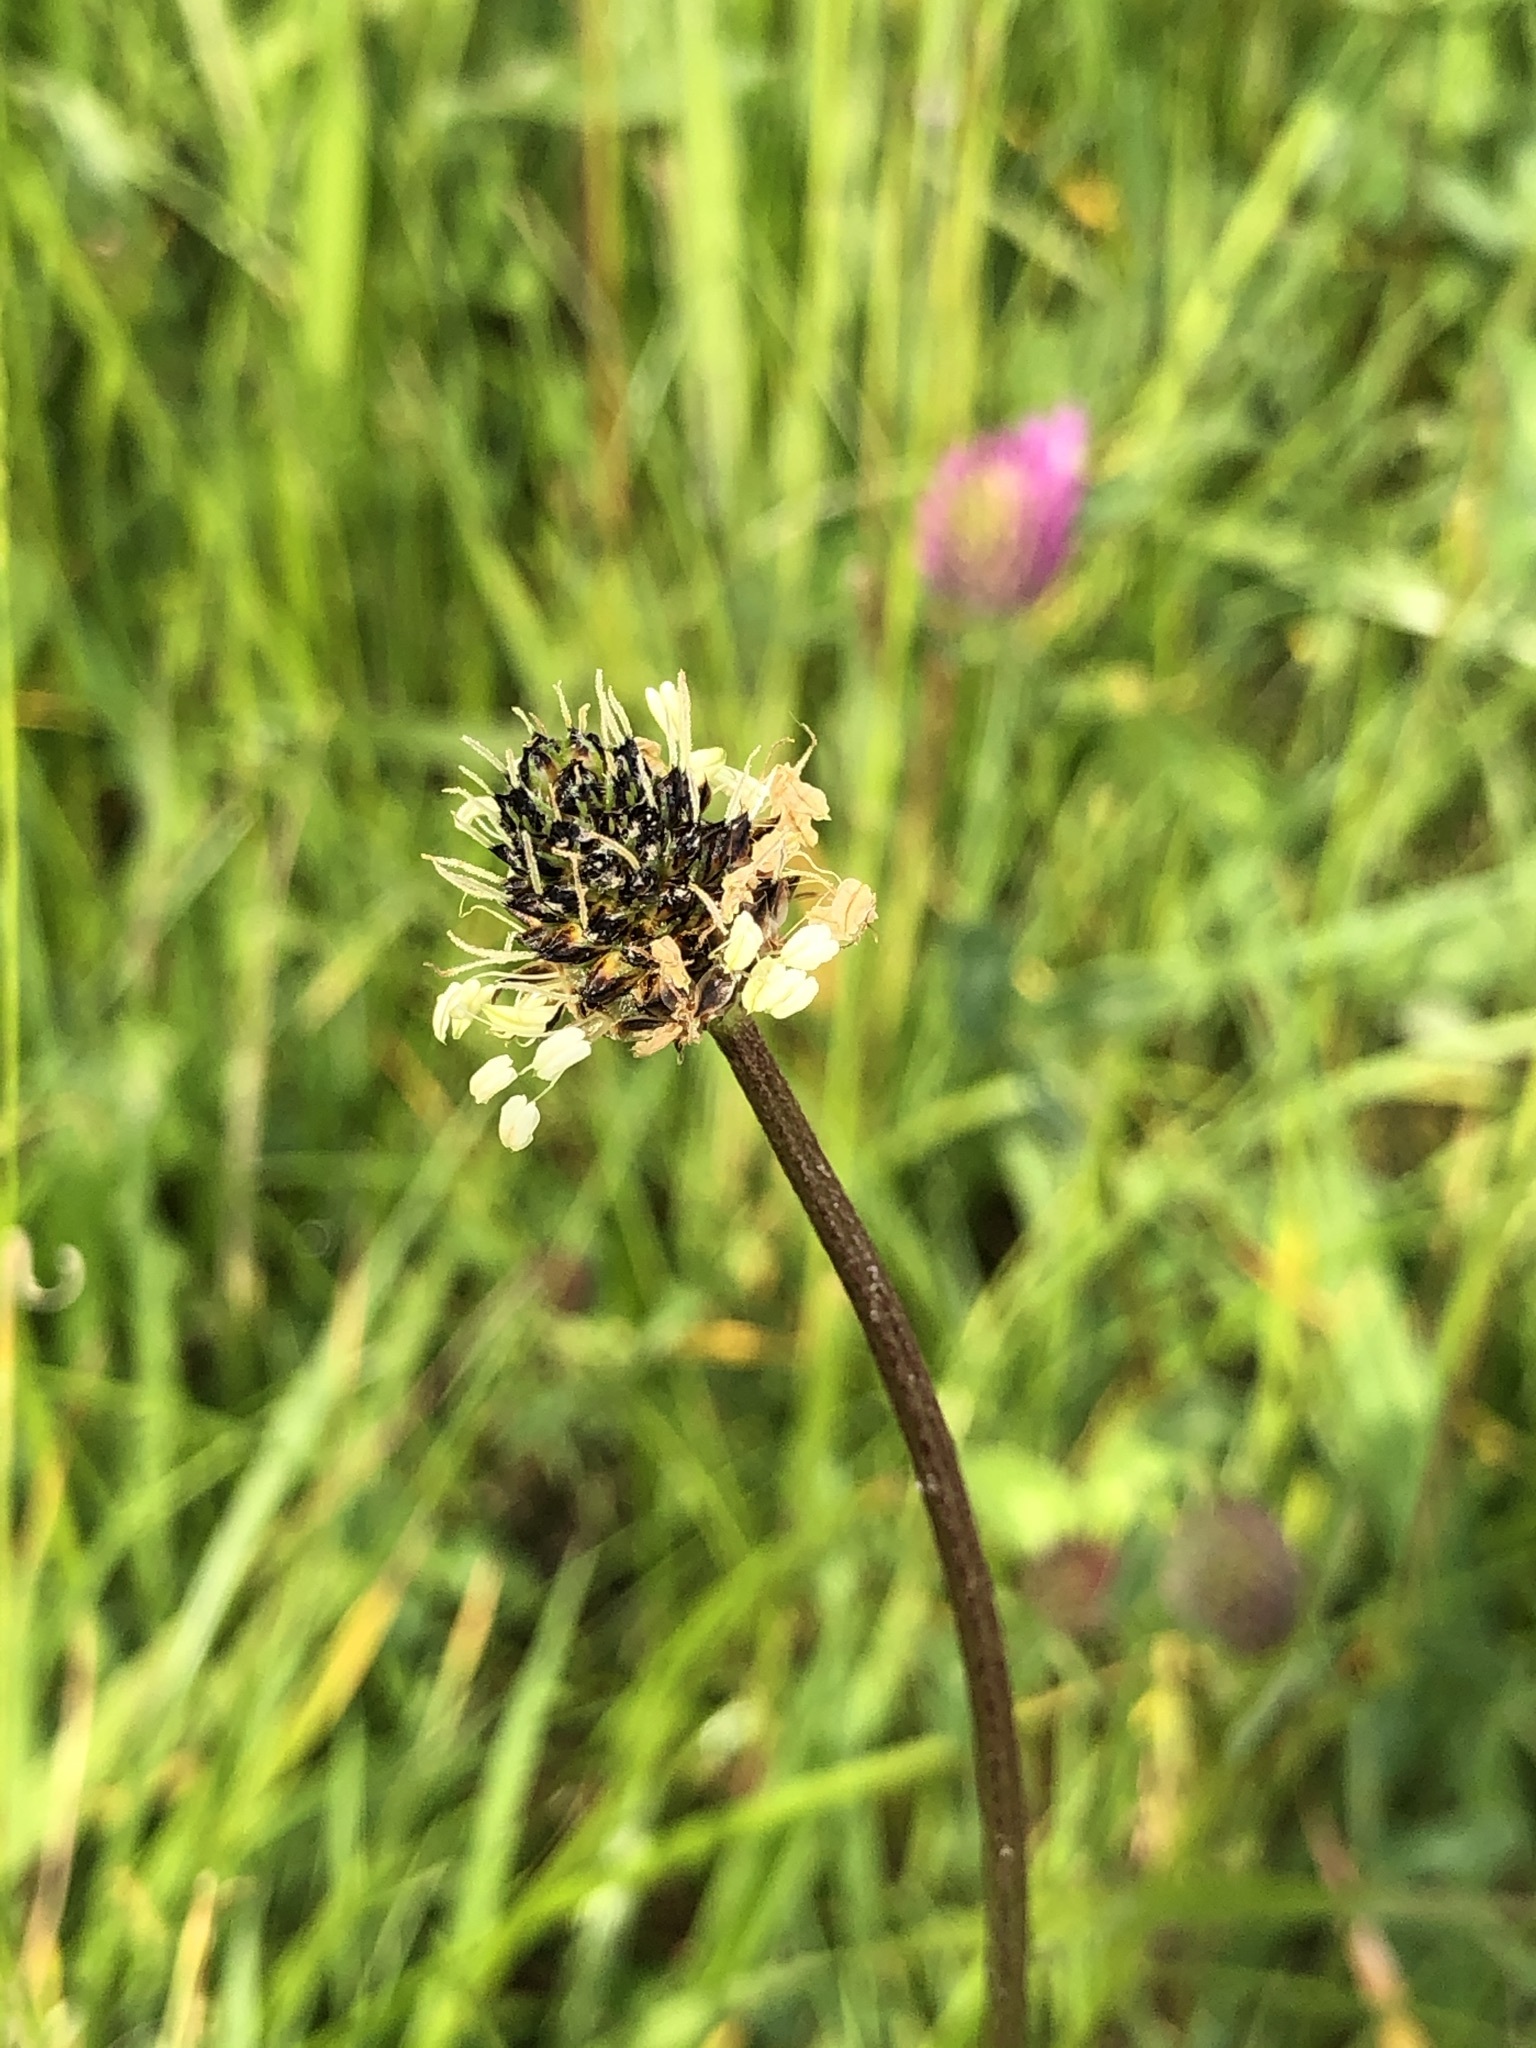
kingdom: Plantae
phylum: Tracheophyta
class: Magnoliopsida
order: Lamiales
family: Plantaginaceae
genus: Plantago
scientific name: Plantago lanceolata
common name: Ribwort plantain
